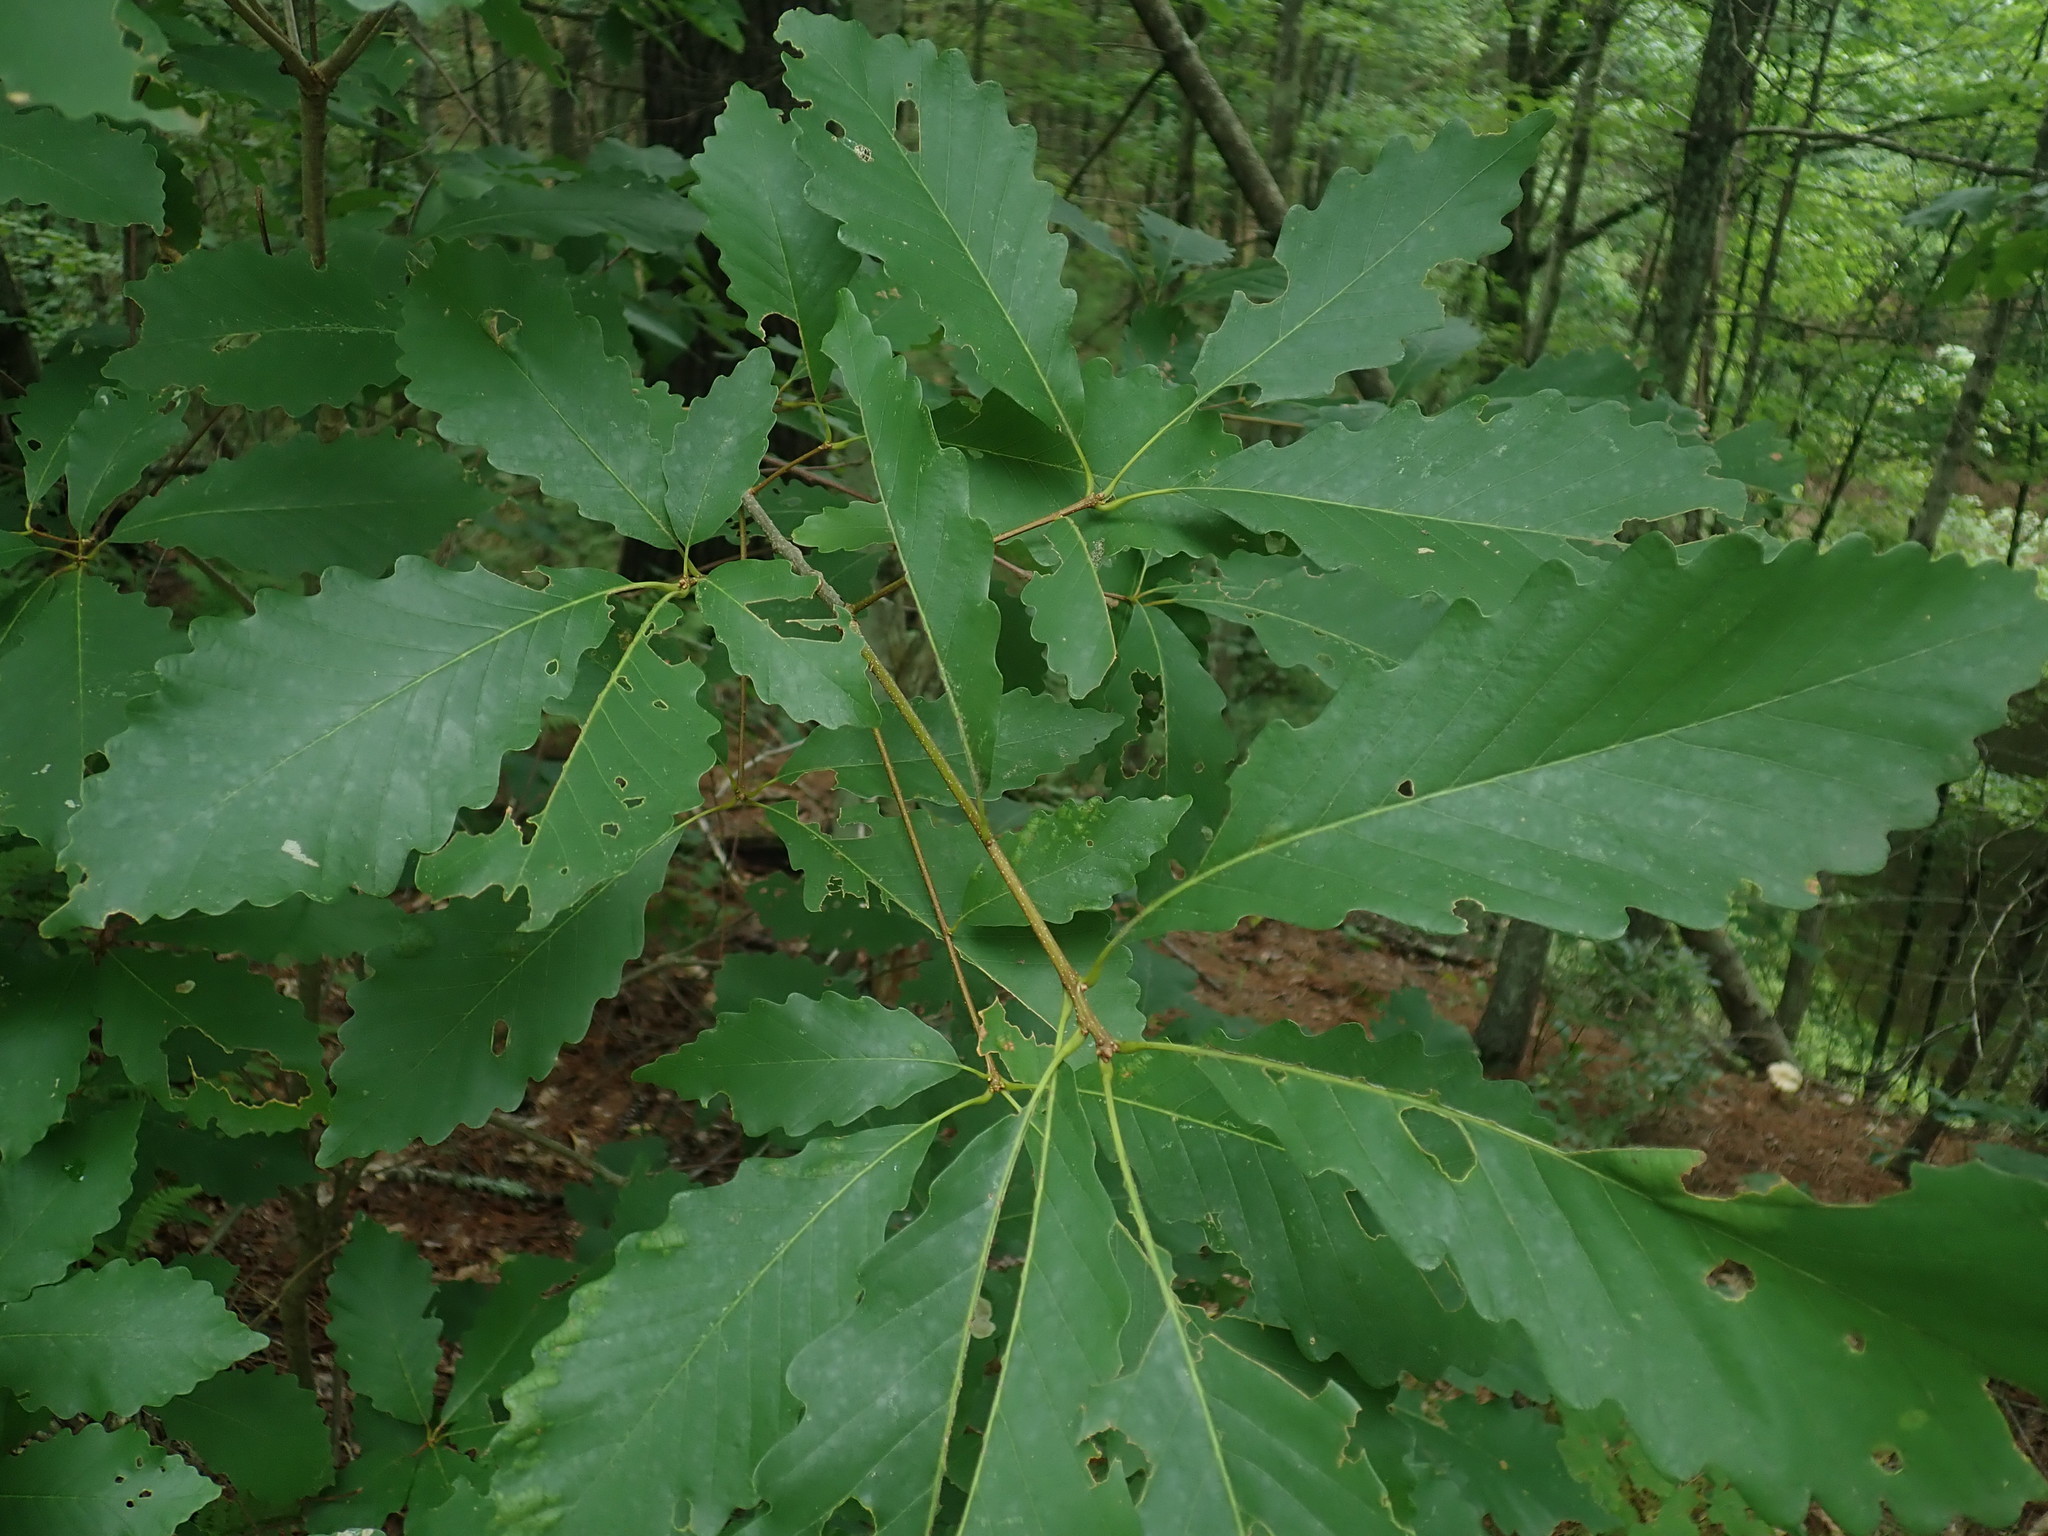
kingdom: Plantae
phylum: Tracheophyta
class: Magnoliopsida
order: Fagales
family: Fagaceae
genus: Quercus
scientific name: Quercus montana
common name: Chestnut oak
